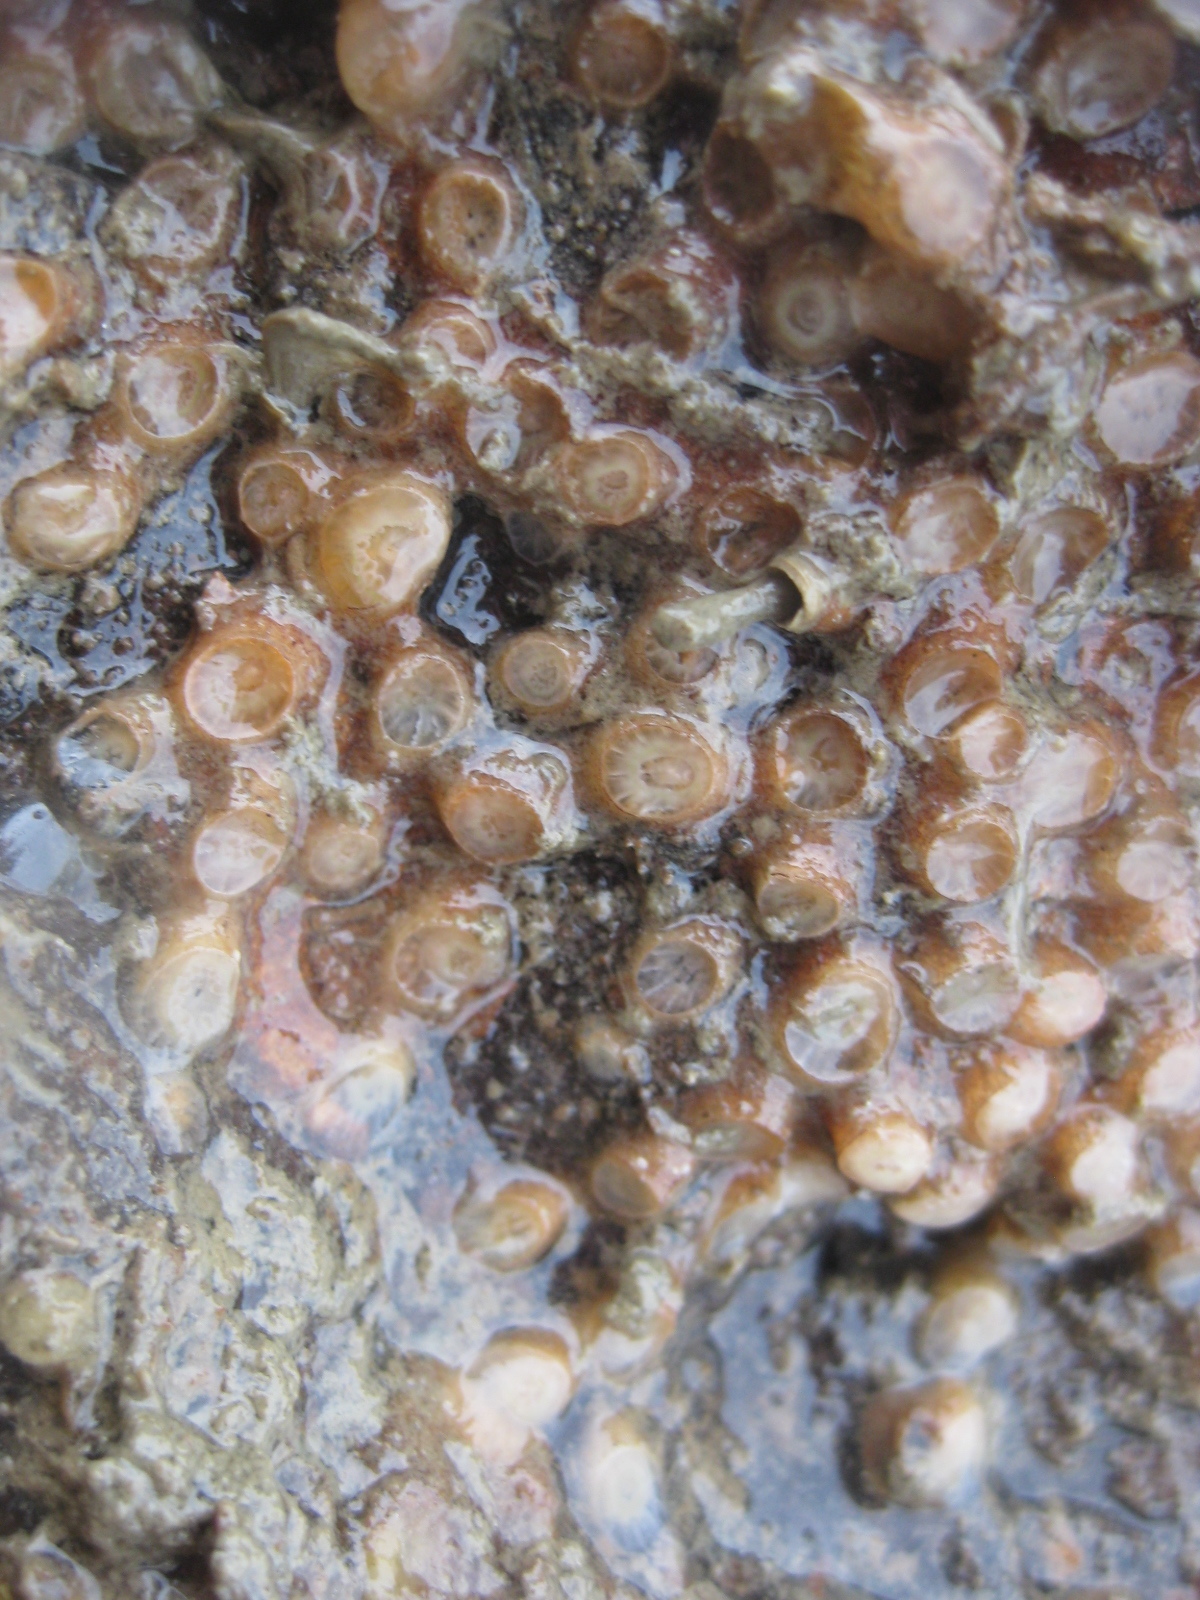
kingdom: Animalia
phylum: Cnidaria
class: Anthozoa
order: Scleractinia
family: Rhizangiidae
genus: Culicia
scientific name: Culicia rubeola
